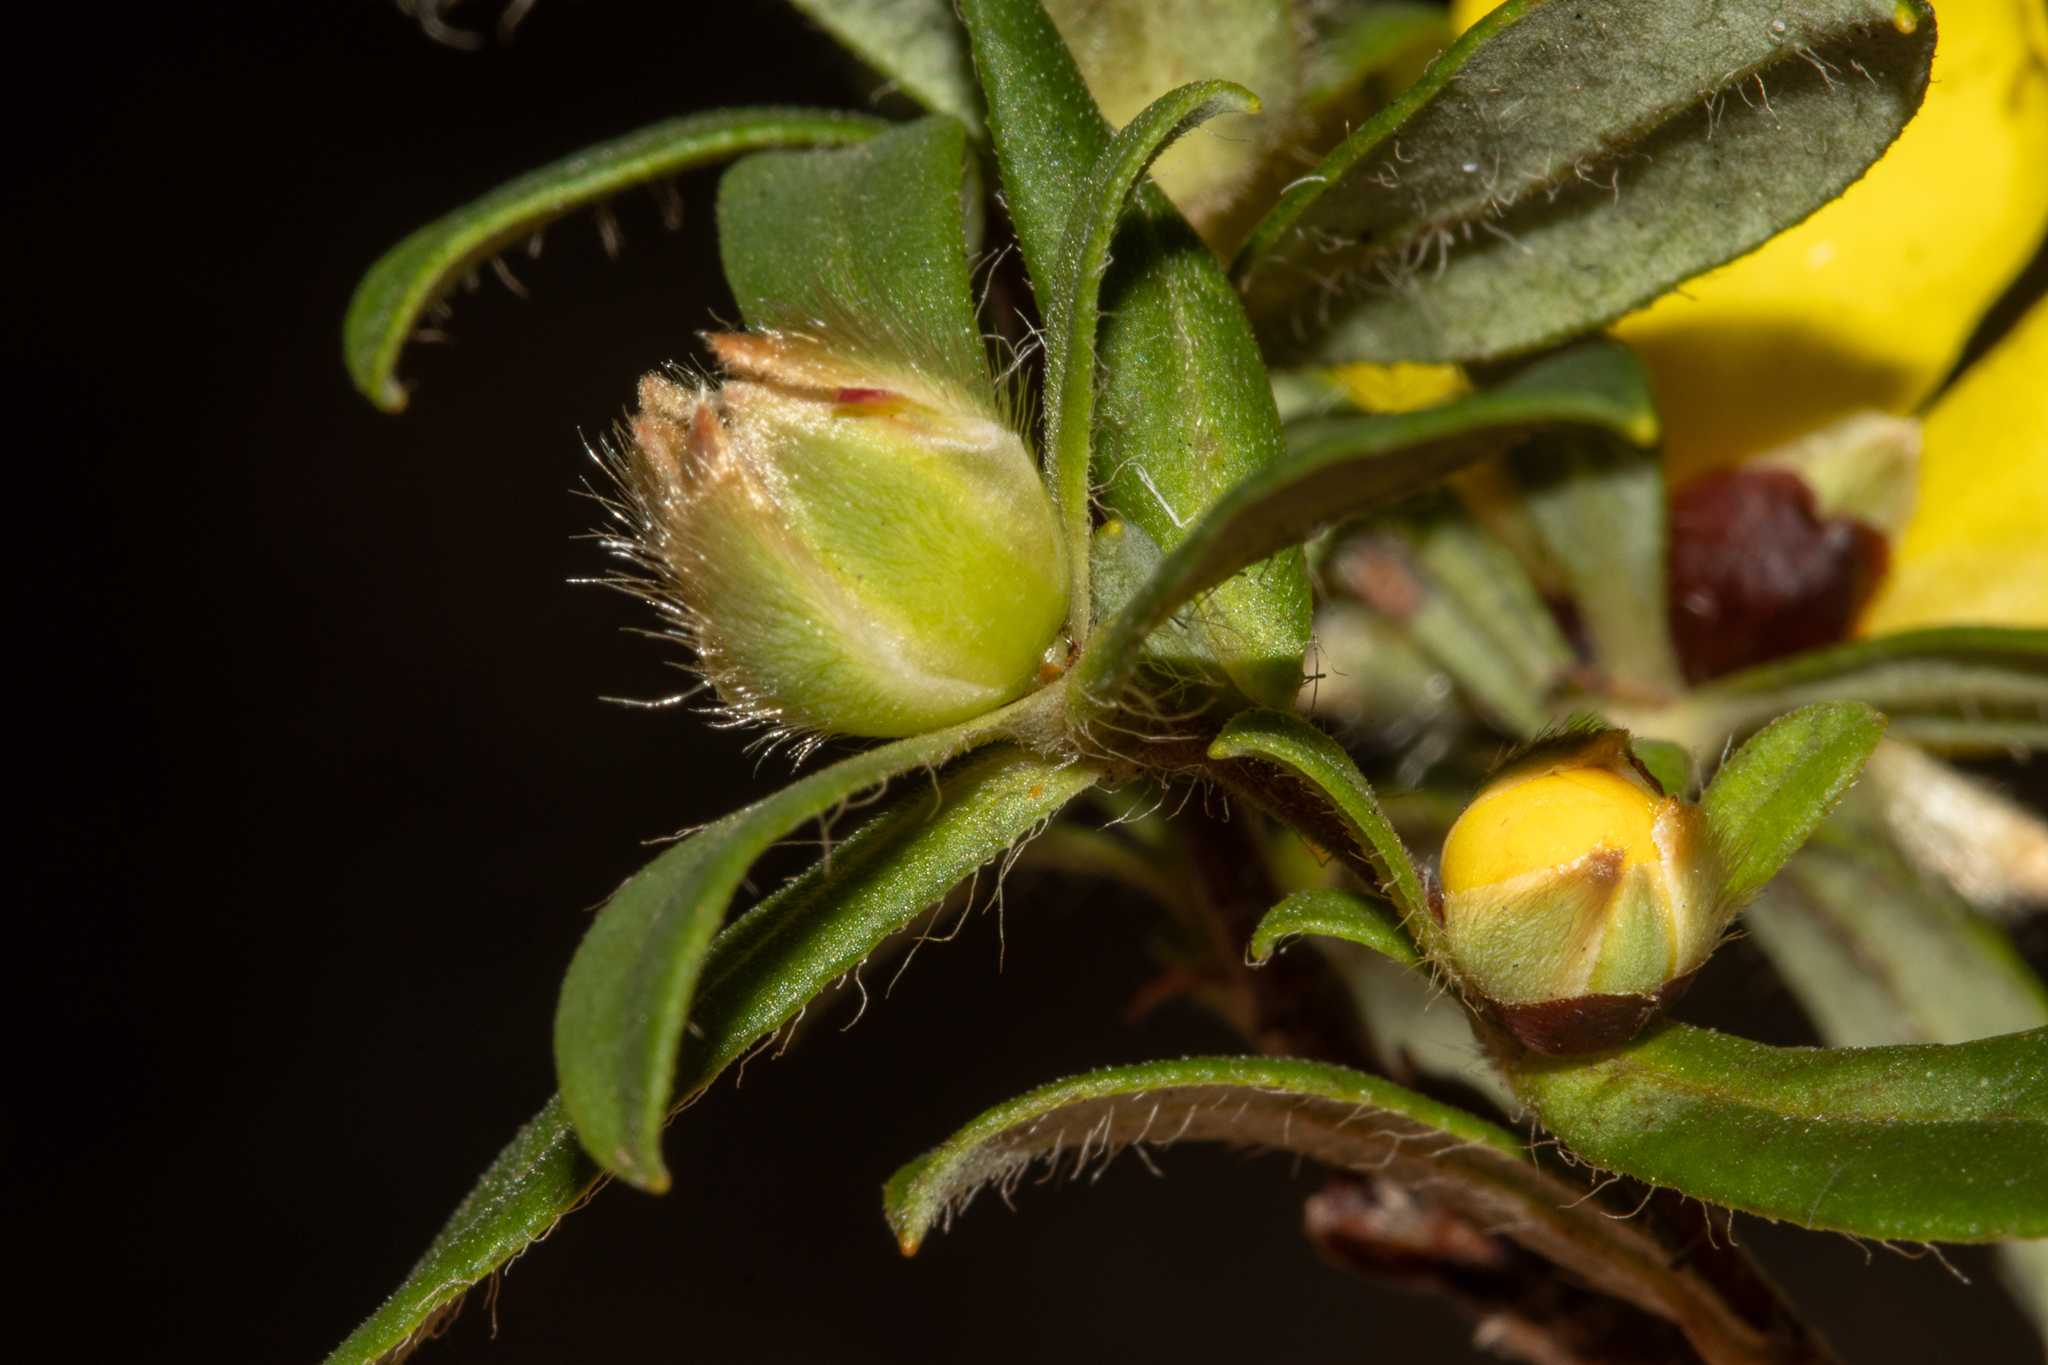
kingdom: Plantae
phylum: Tracheophyta
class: Magnoliopsida
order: Dilleniales
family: Dilleniaceae
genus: Hibbertia
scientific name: Hibbertia semipilosa
